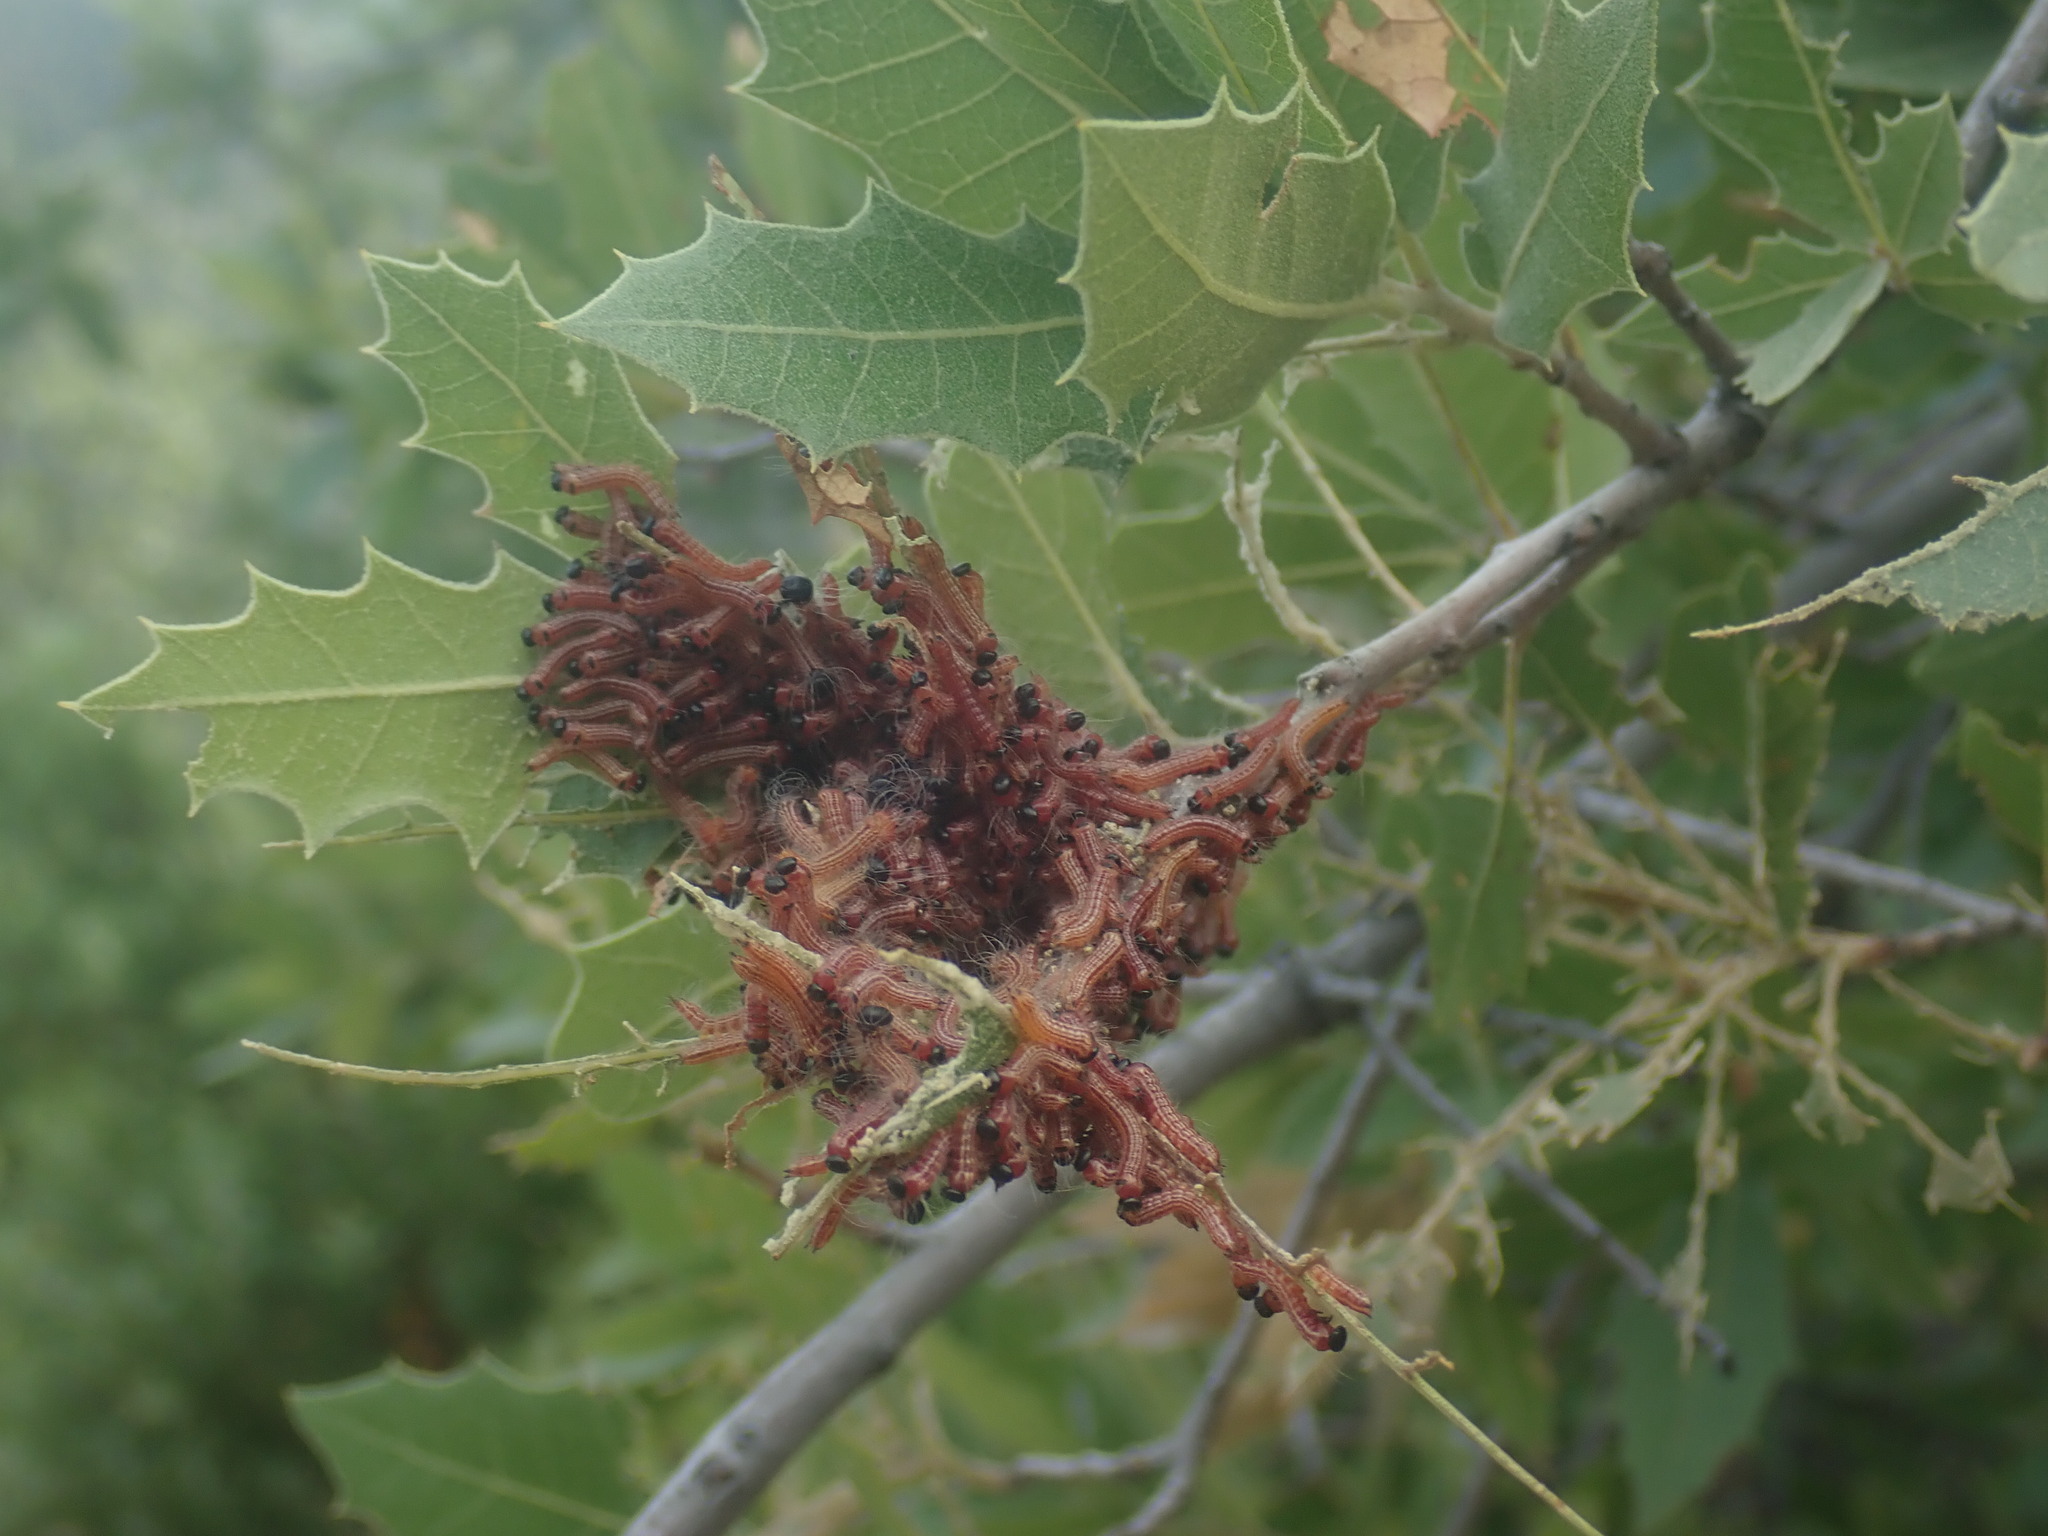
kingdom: Animalia
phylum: Arthropoda
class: Insecta
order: Lepidoptera
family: Notodontidae
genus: Datana
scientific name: Datana perfusa
